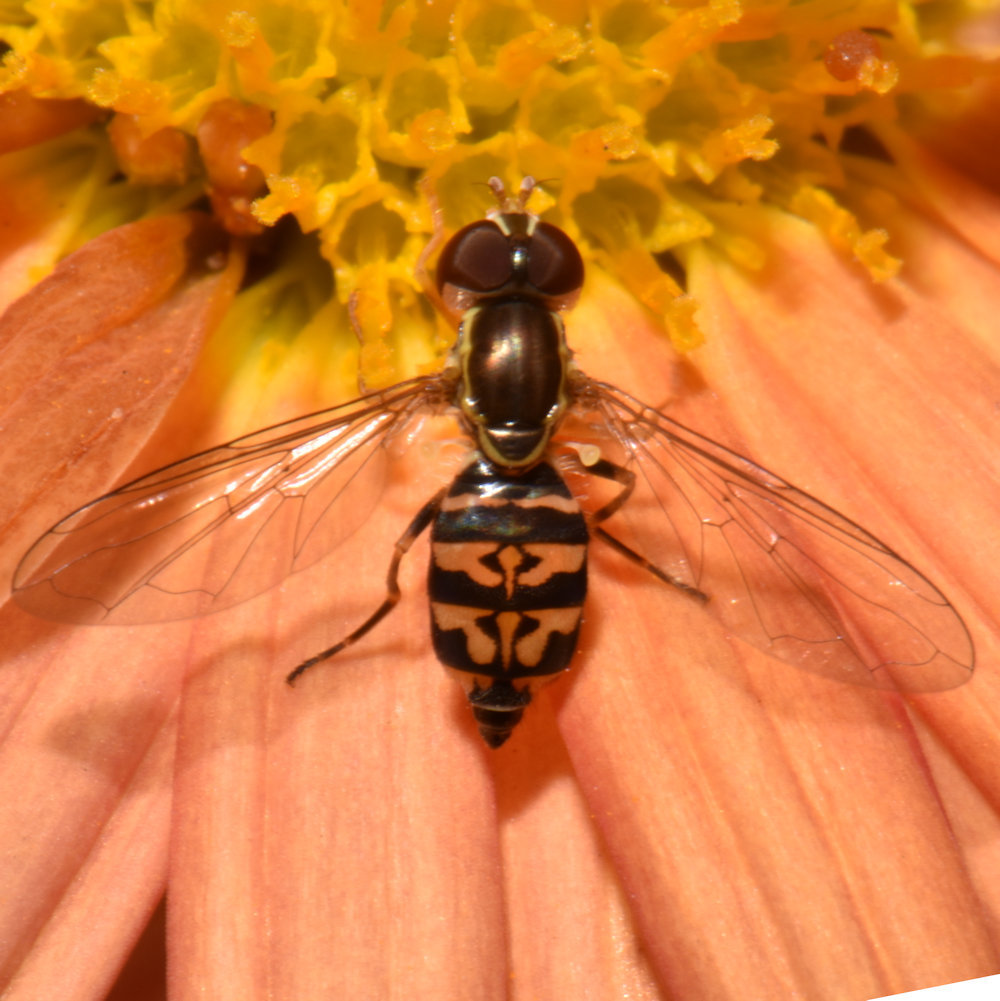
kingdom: Animalia
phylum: Arthropoda
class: Insecta
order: Diptera
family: Syrphidae
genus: Toxomerus
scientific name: Toxomerus geminatus
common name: Eastern calligrapher
